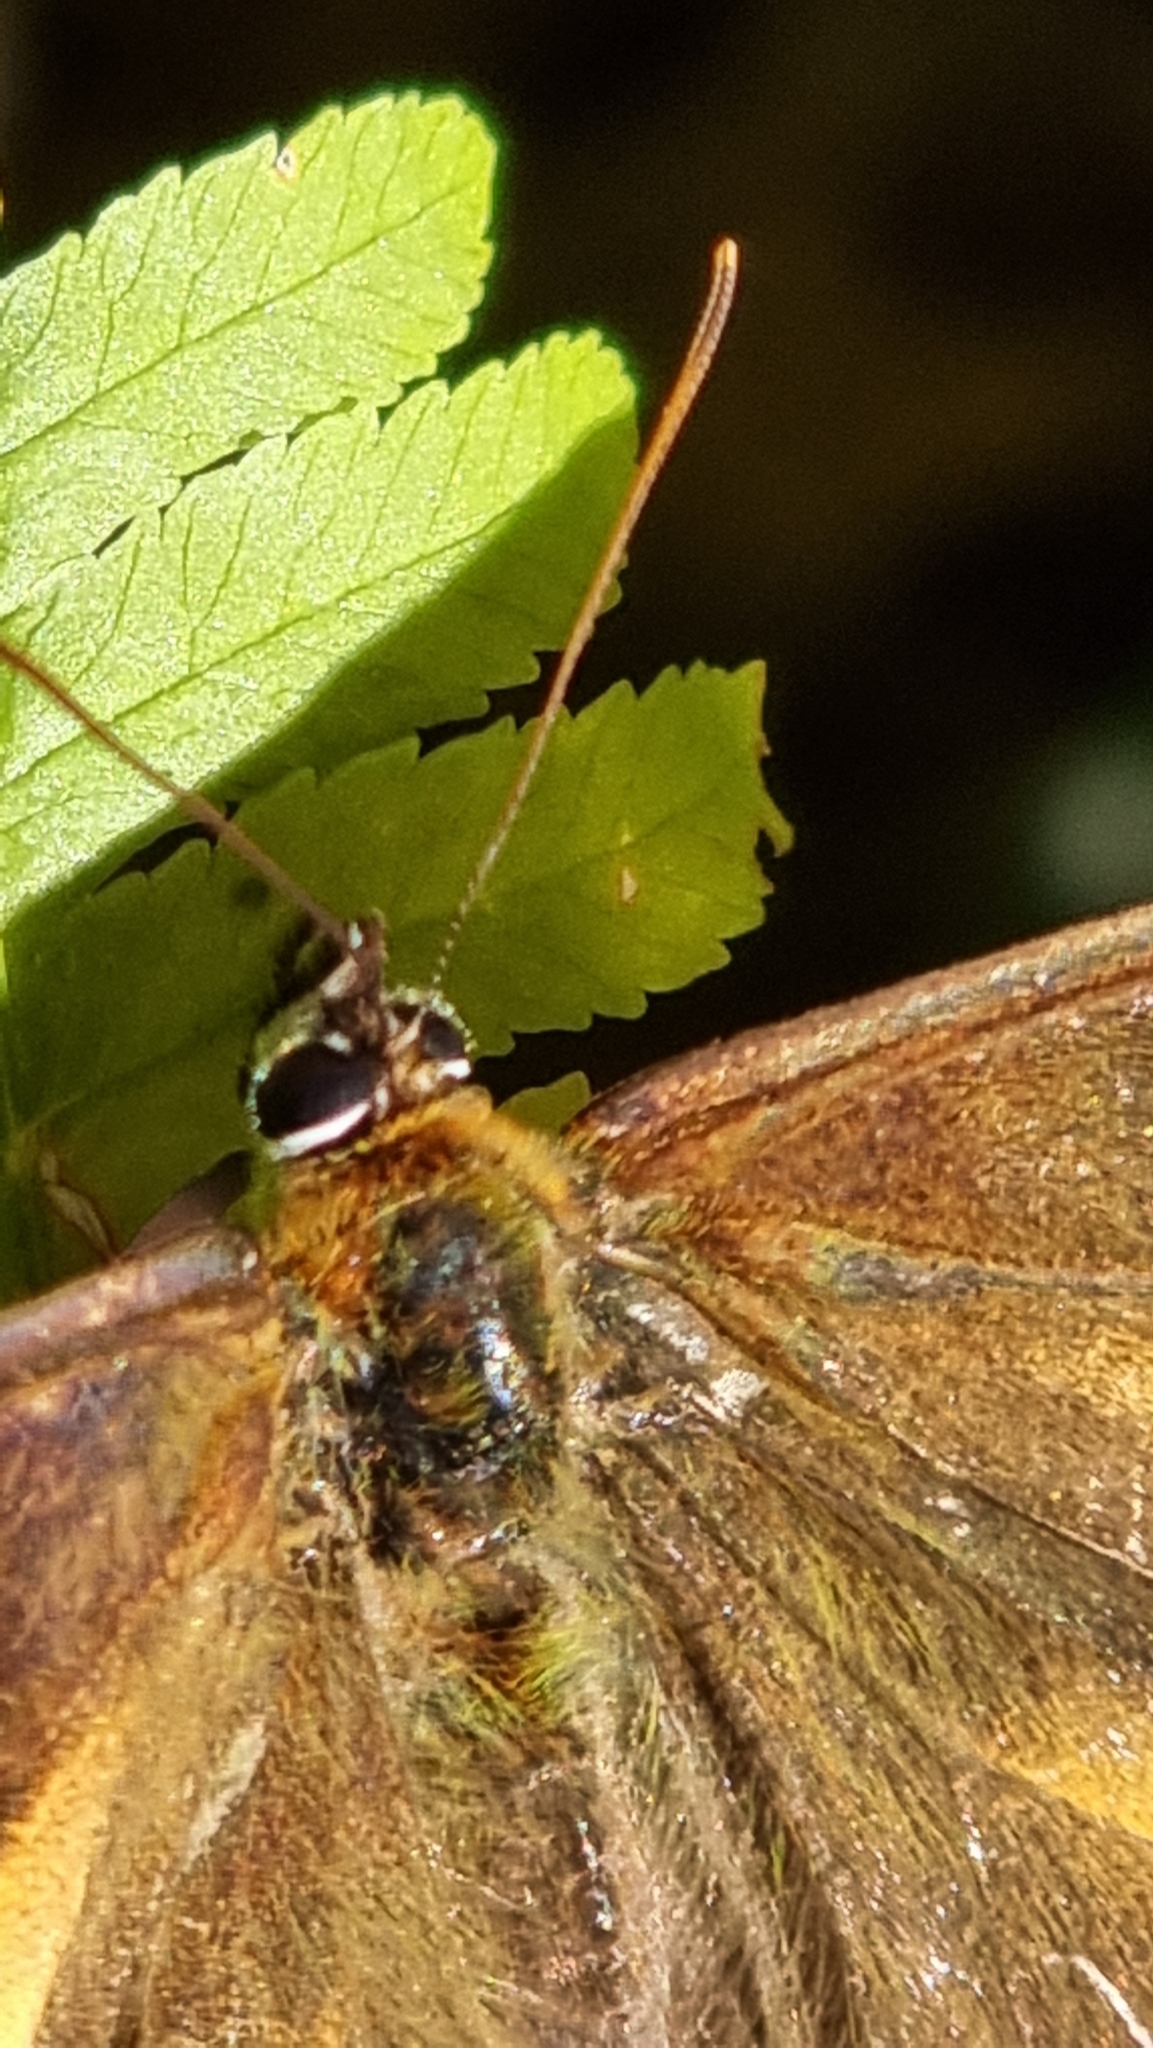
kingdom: Animalia
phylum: Arthropoda
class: Insecta
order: Lepidoptera
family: Nymphalidae
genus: Heteronympha
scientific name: Heteronympha banksii
